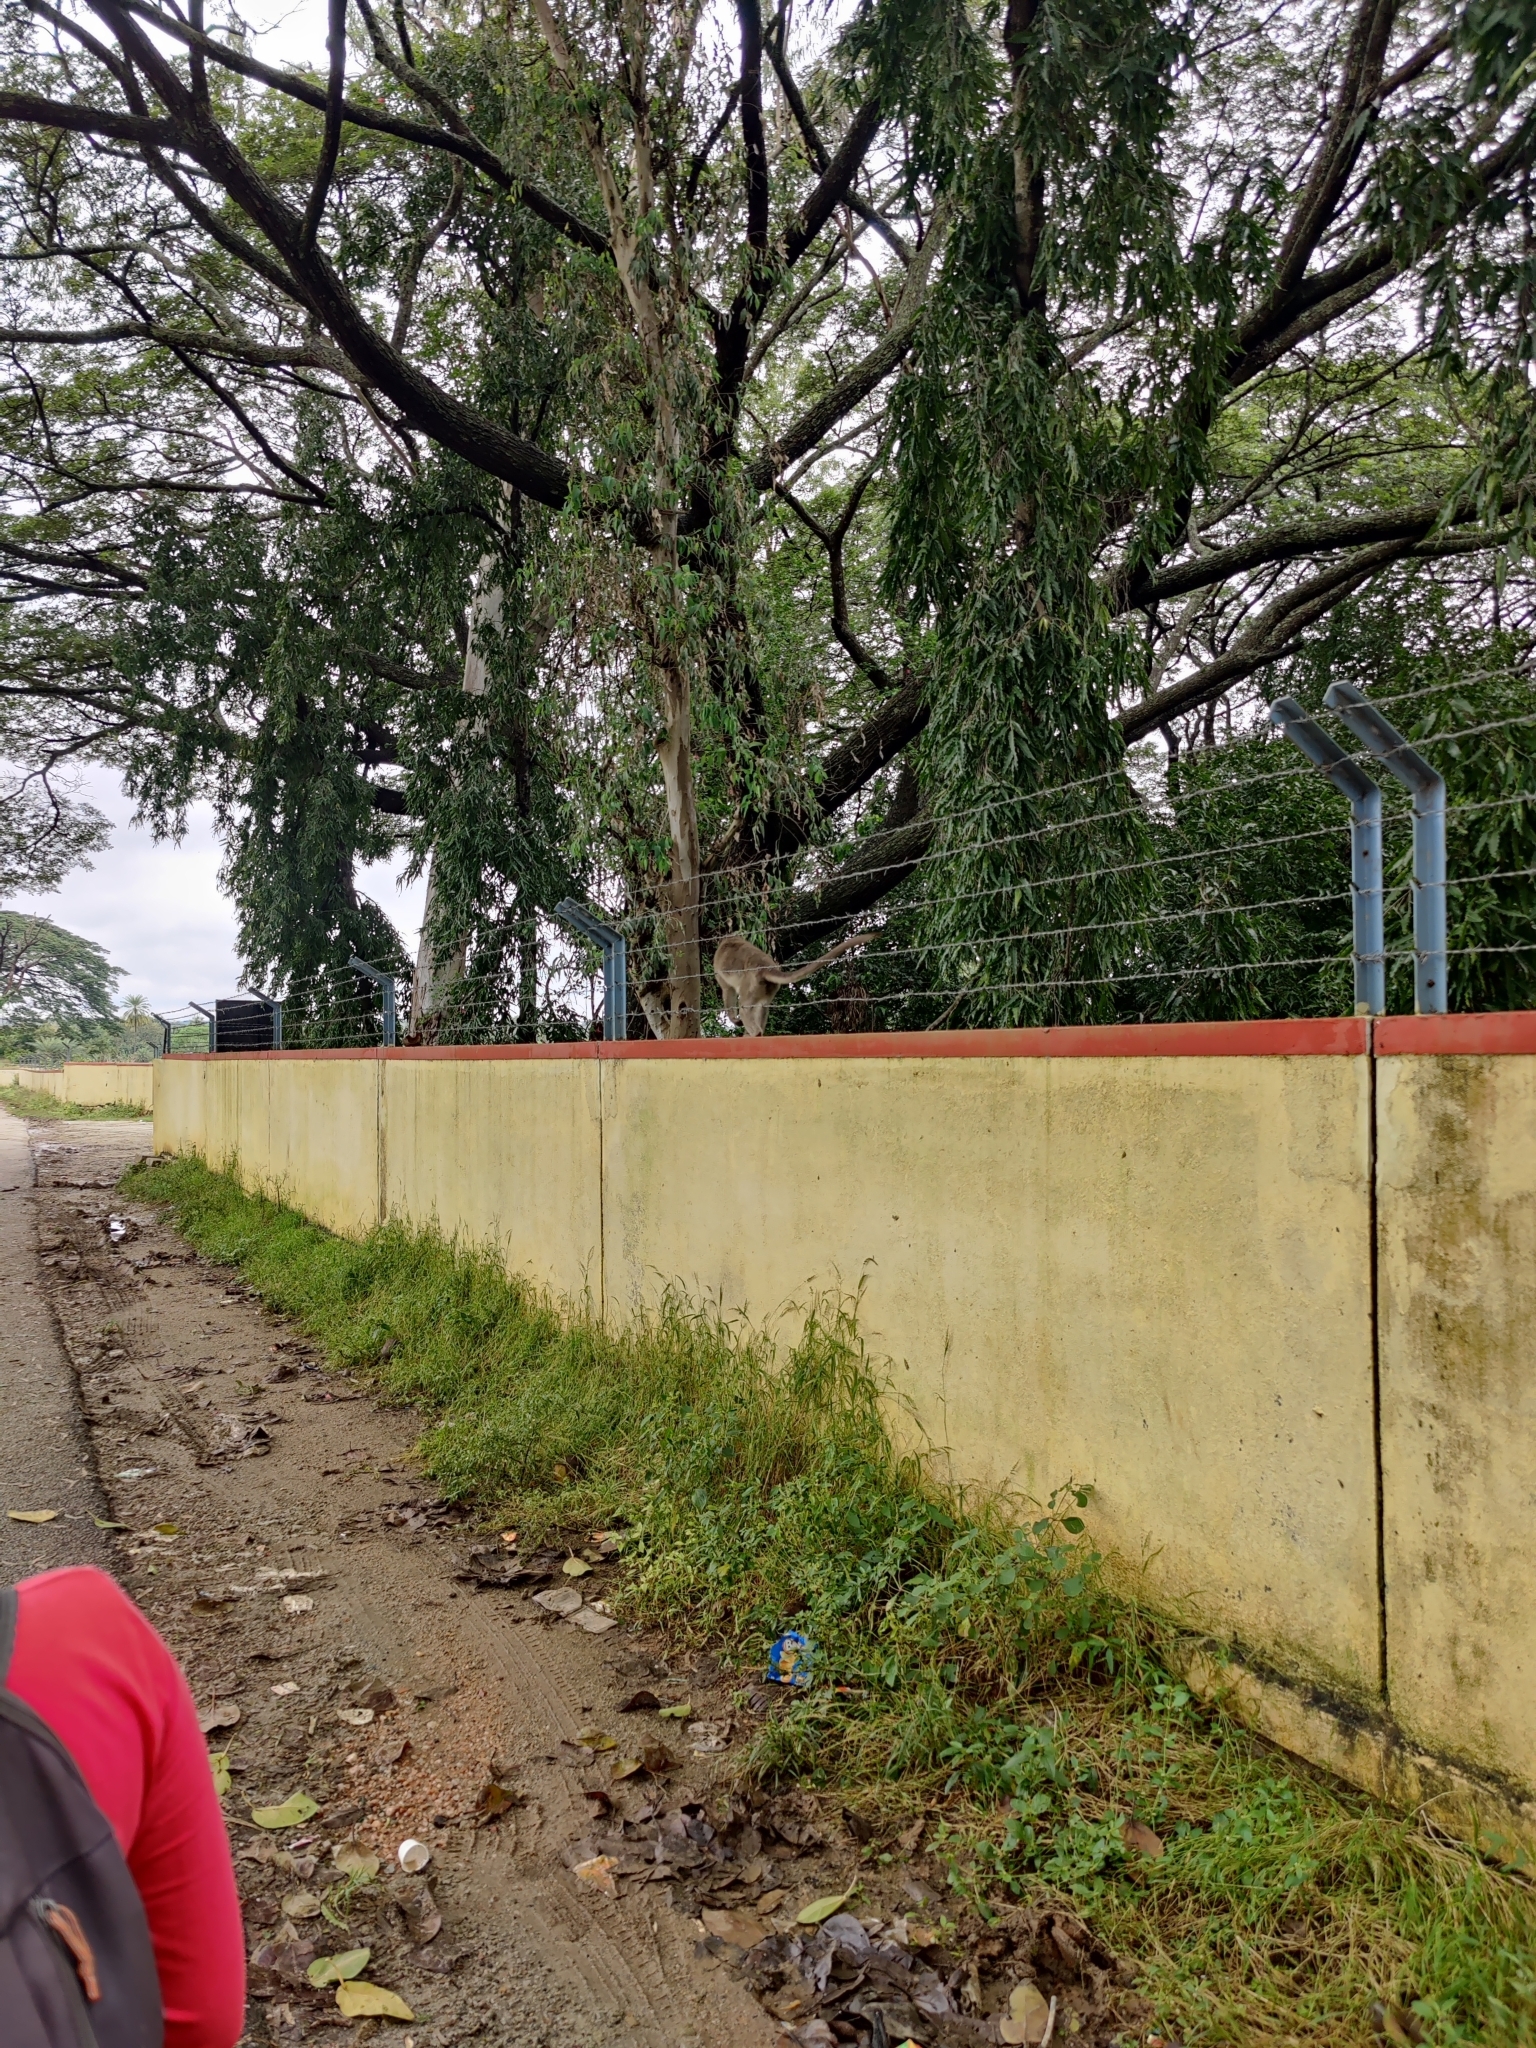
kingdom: Animalia
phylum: Chordata
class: Mammalia
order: Primates
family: Cercopithecidae
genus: Macaca
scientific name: Macaca radiata
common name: Bonnet macaque
